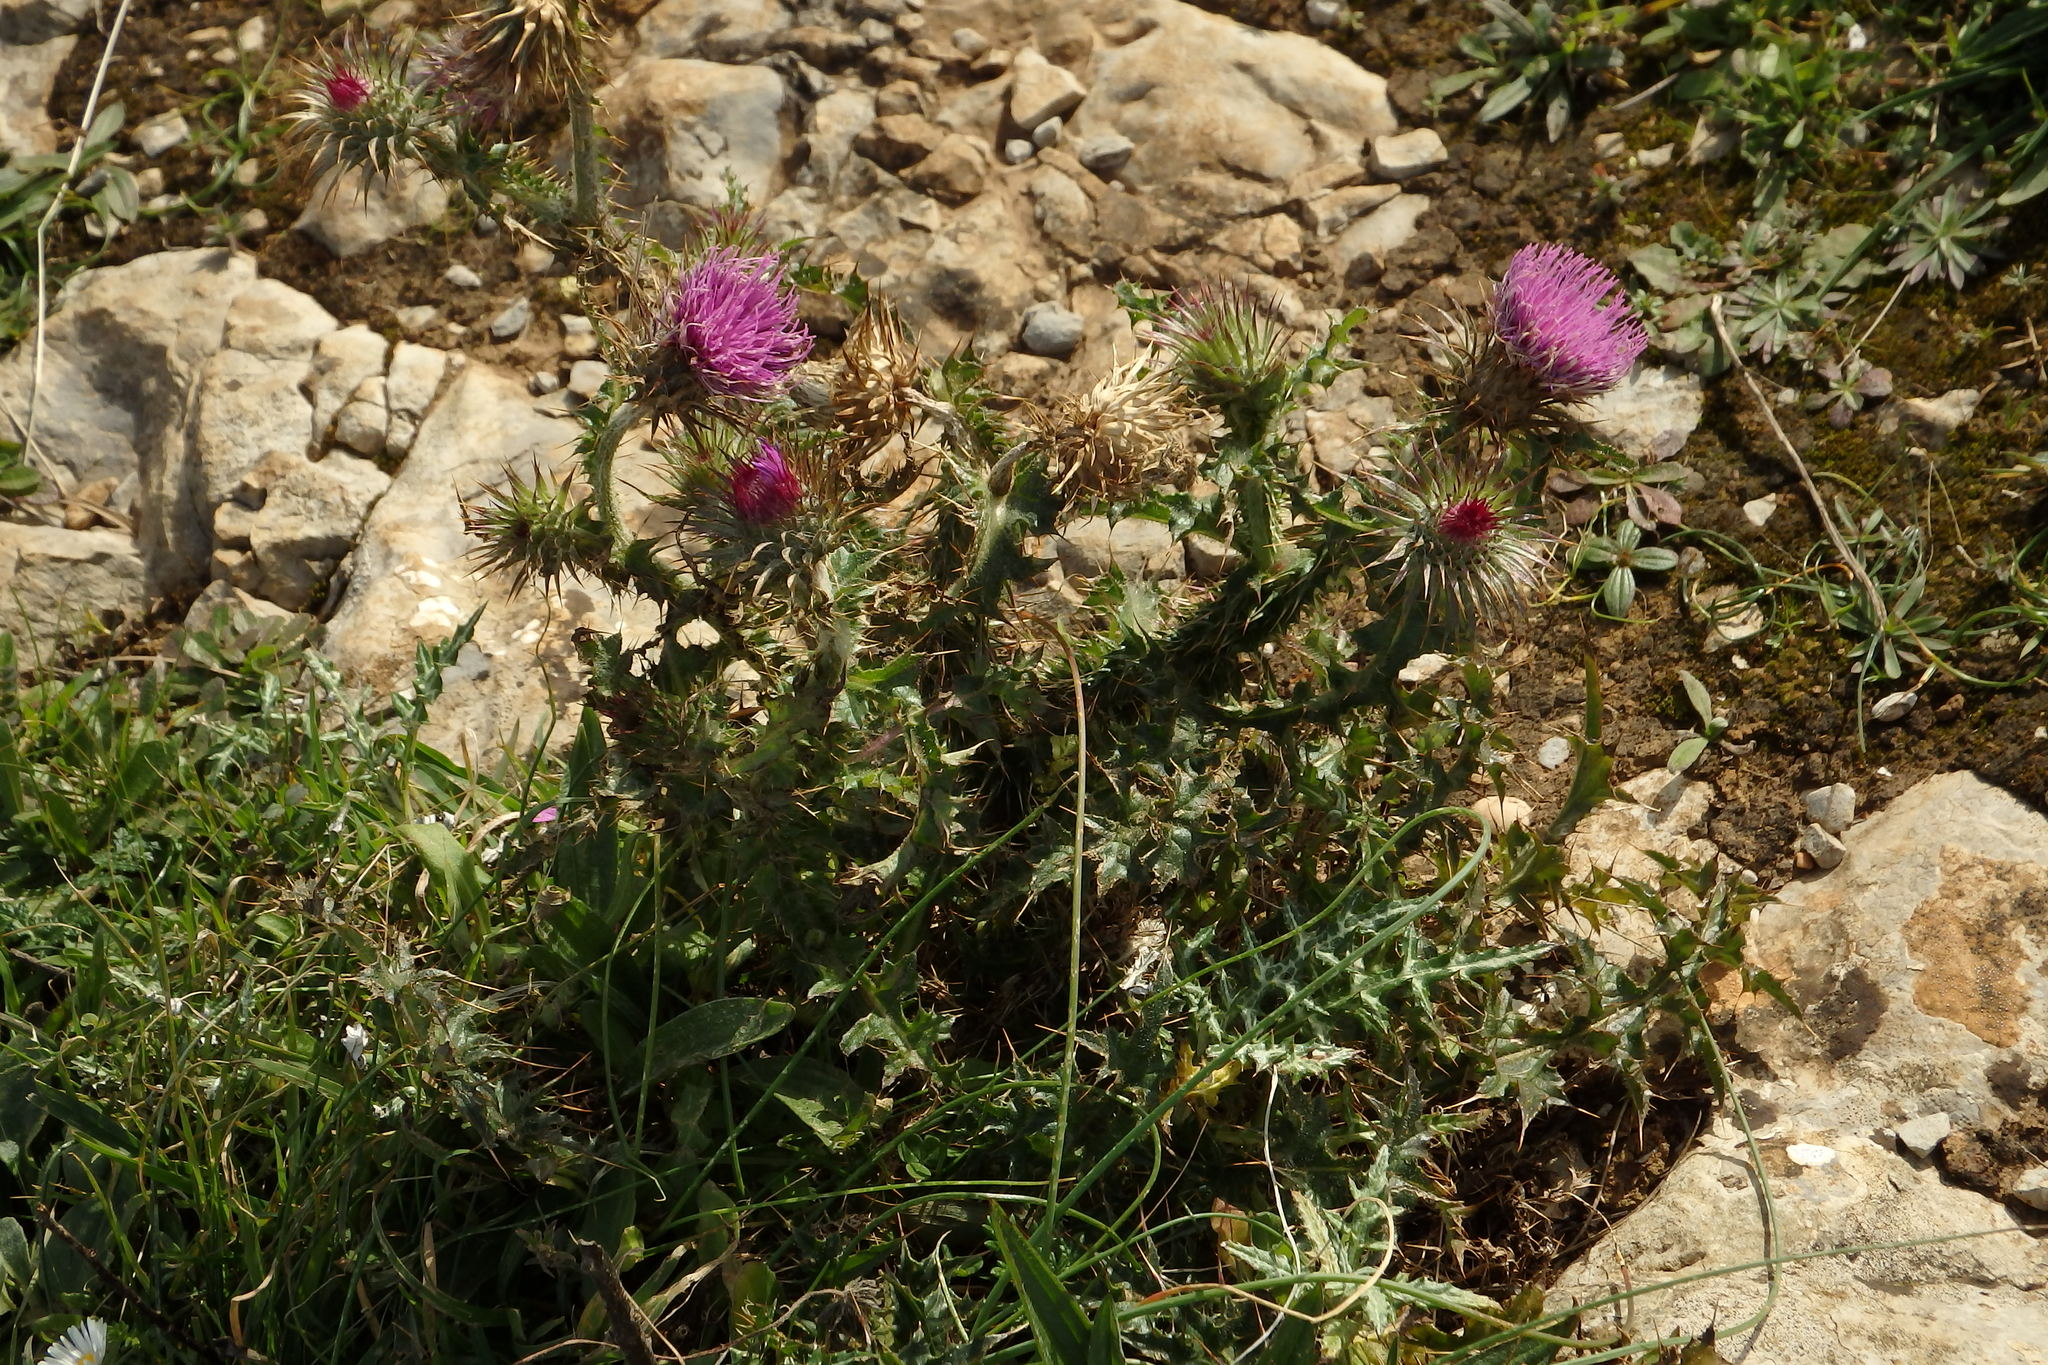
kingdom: Plantae
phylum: Tracheophyta
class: Magnoliopsida
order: Asterales
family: Asteraceae
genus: Carduus
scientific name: Carduus broteroi
